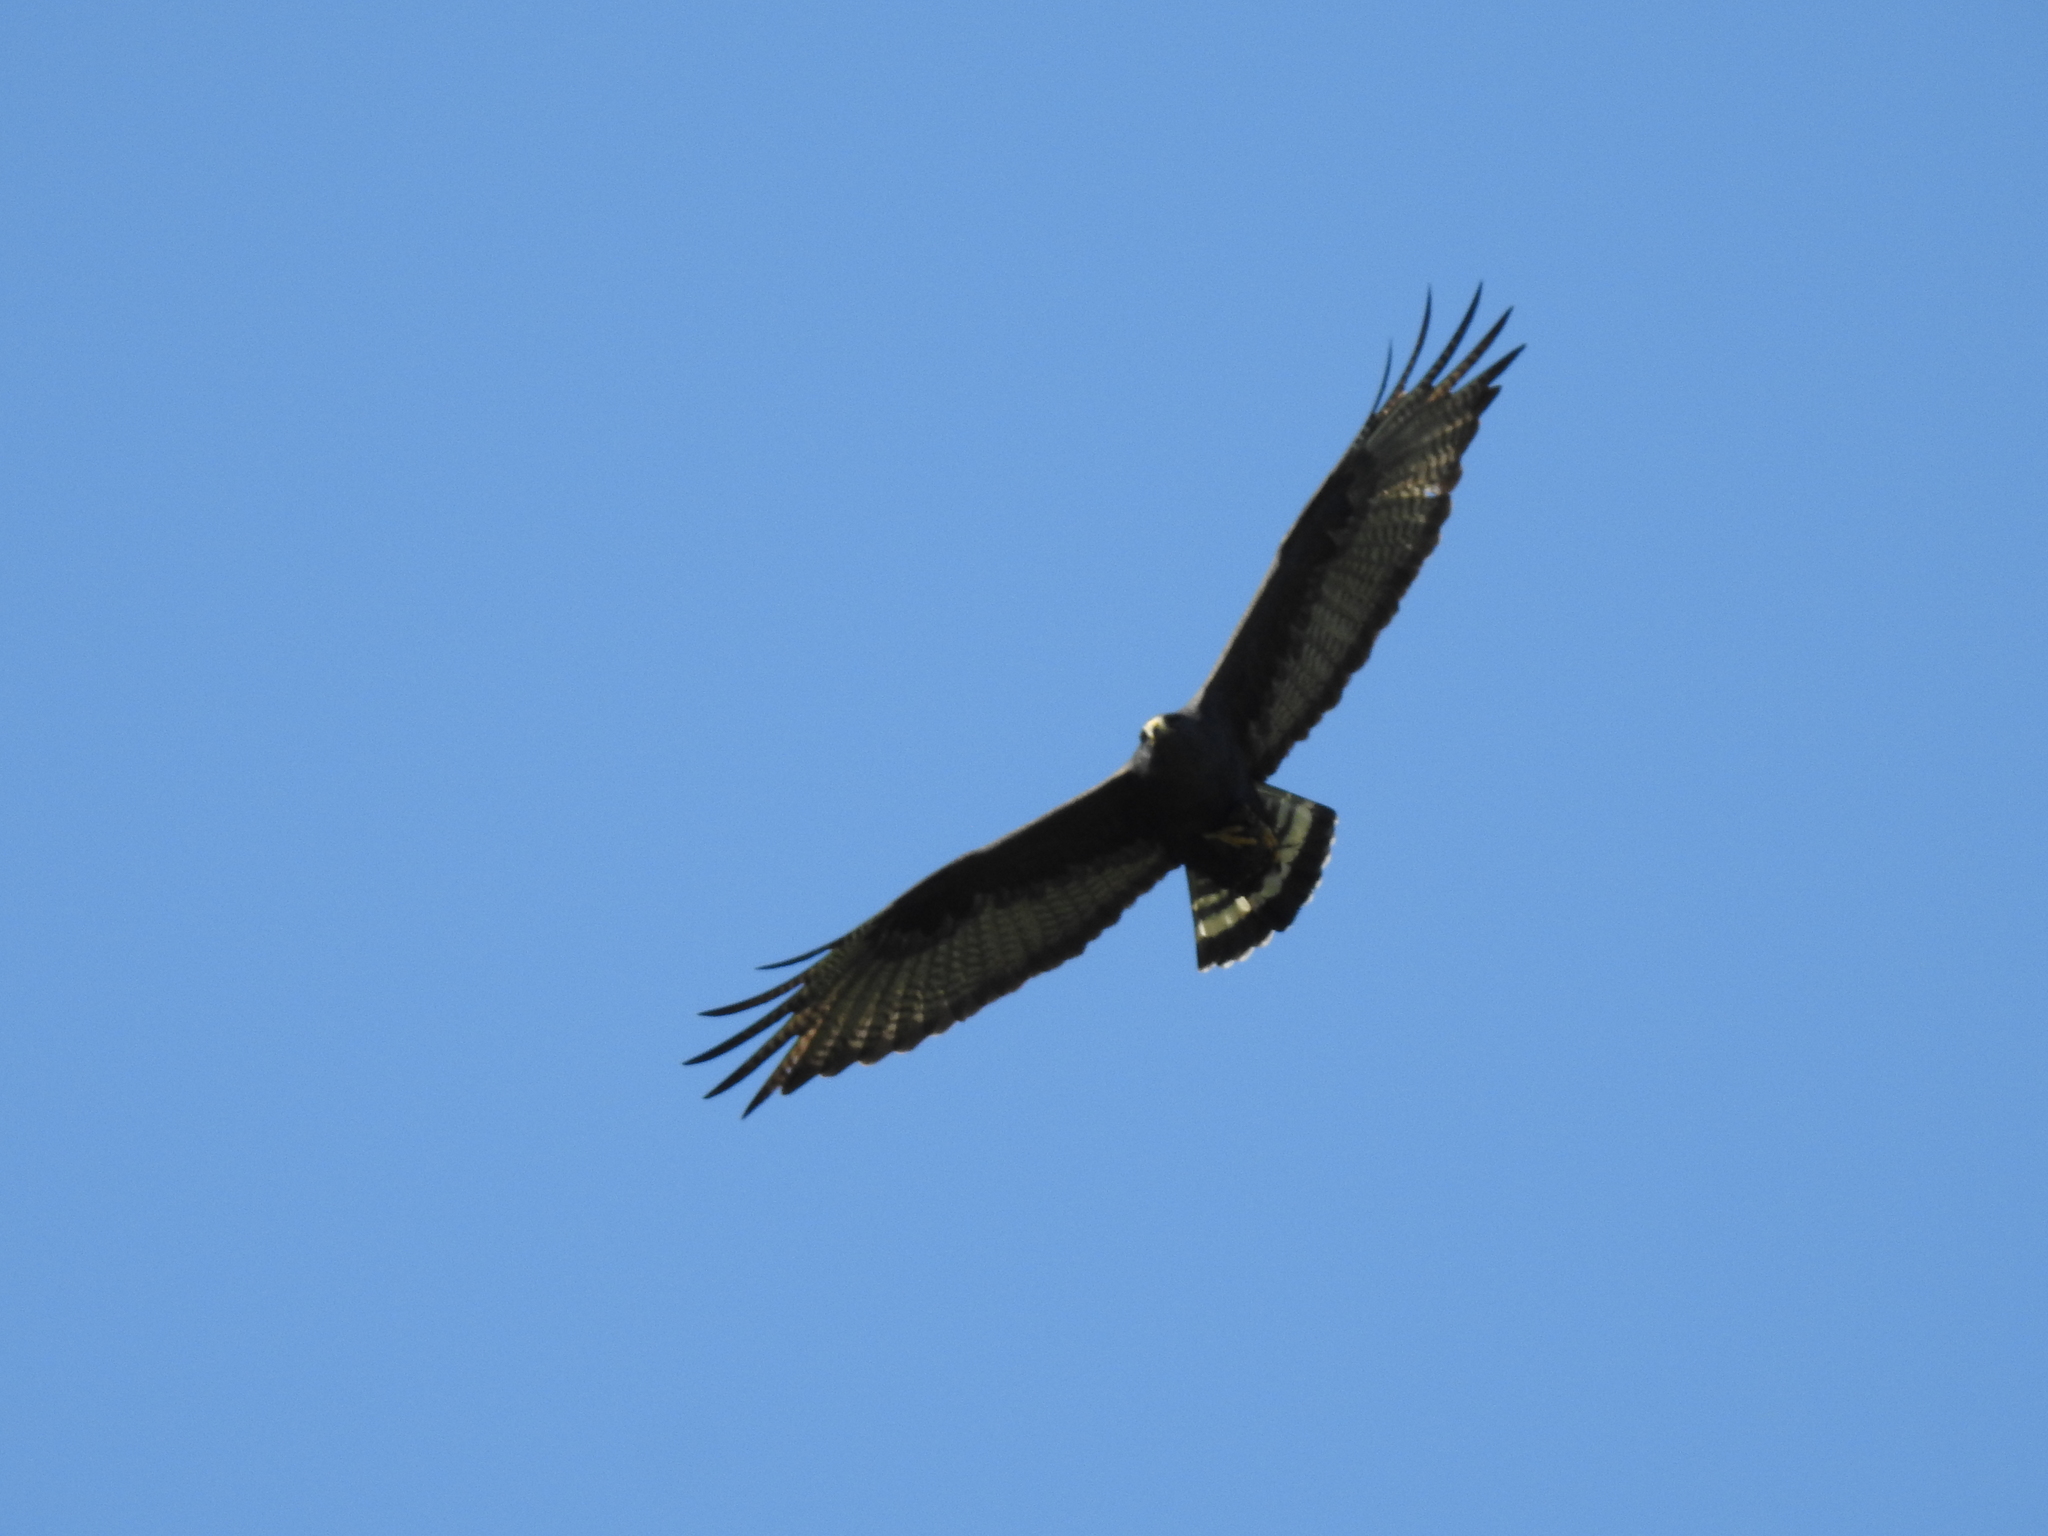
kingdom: Animalia
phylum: Chordata
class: Aves
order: Accipitriformes
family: Accipitridae
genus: Buteo
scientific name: Buteo albonotatus
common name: Zone-tailed hawk
